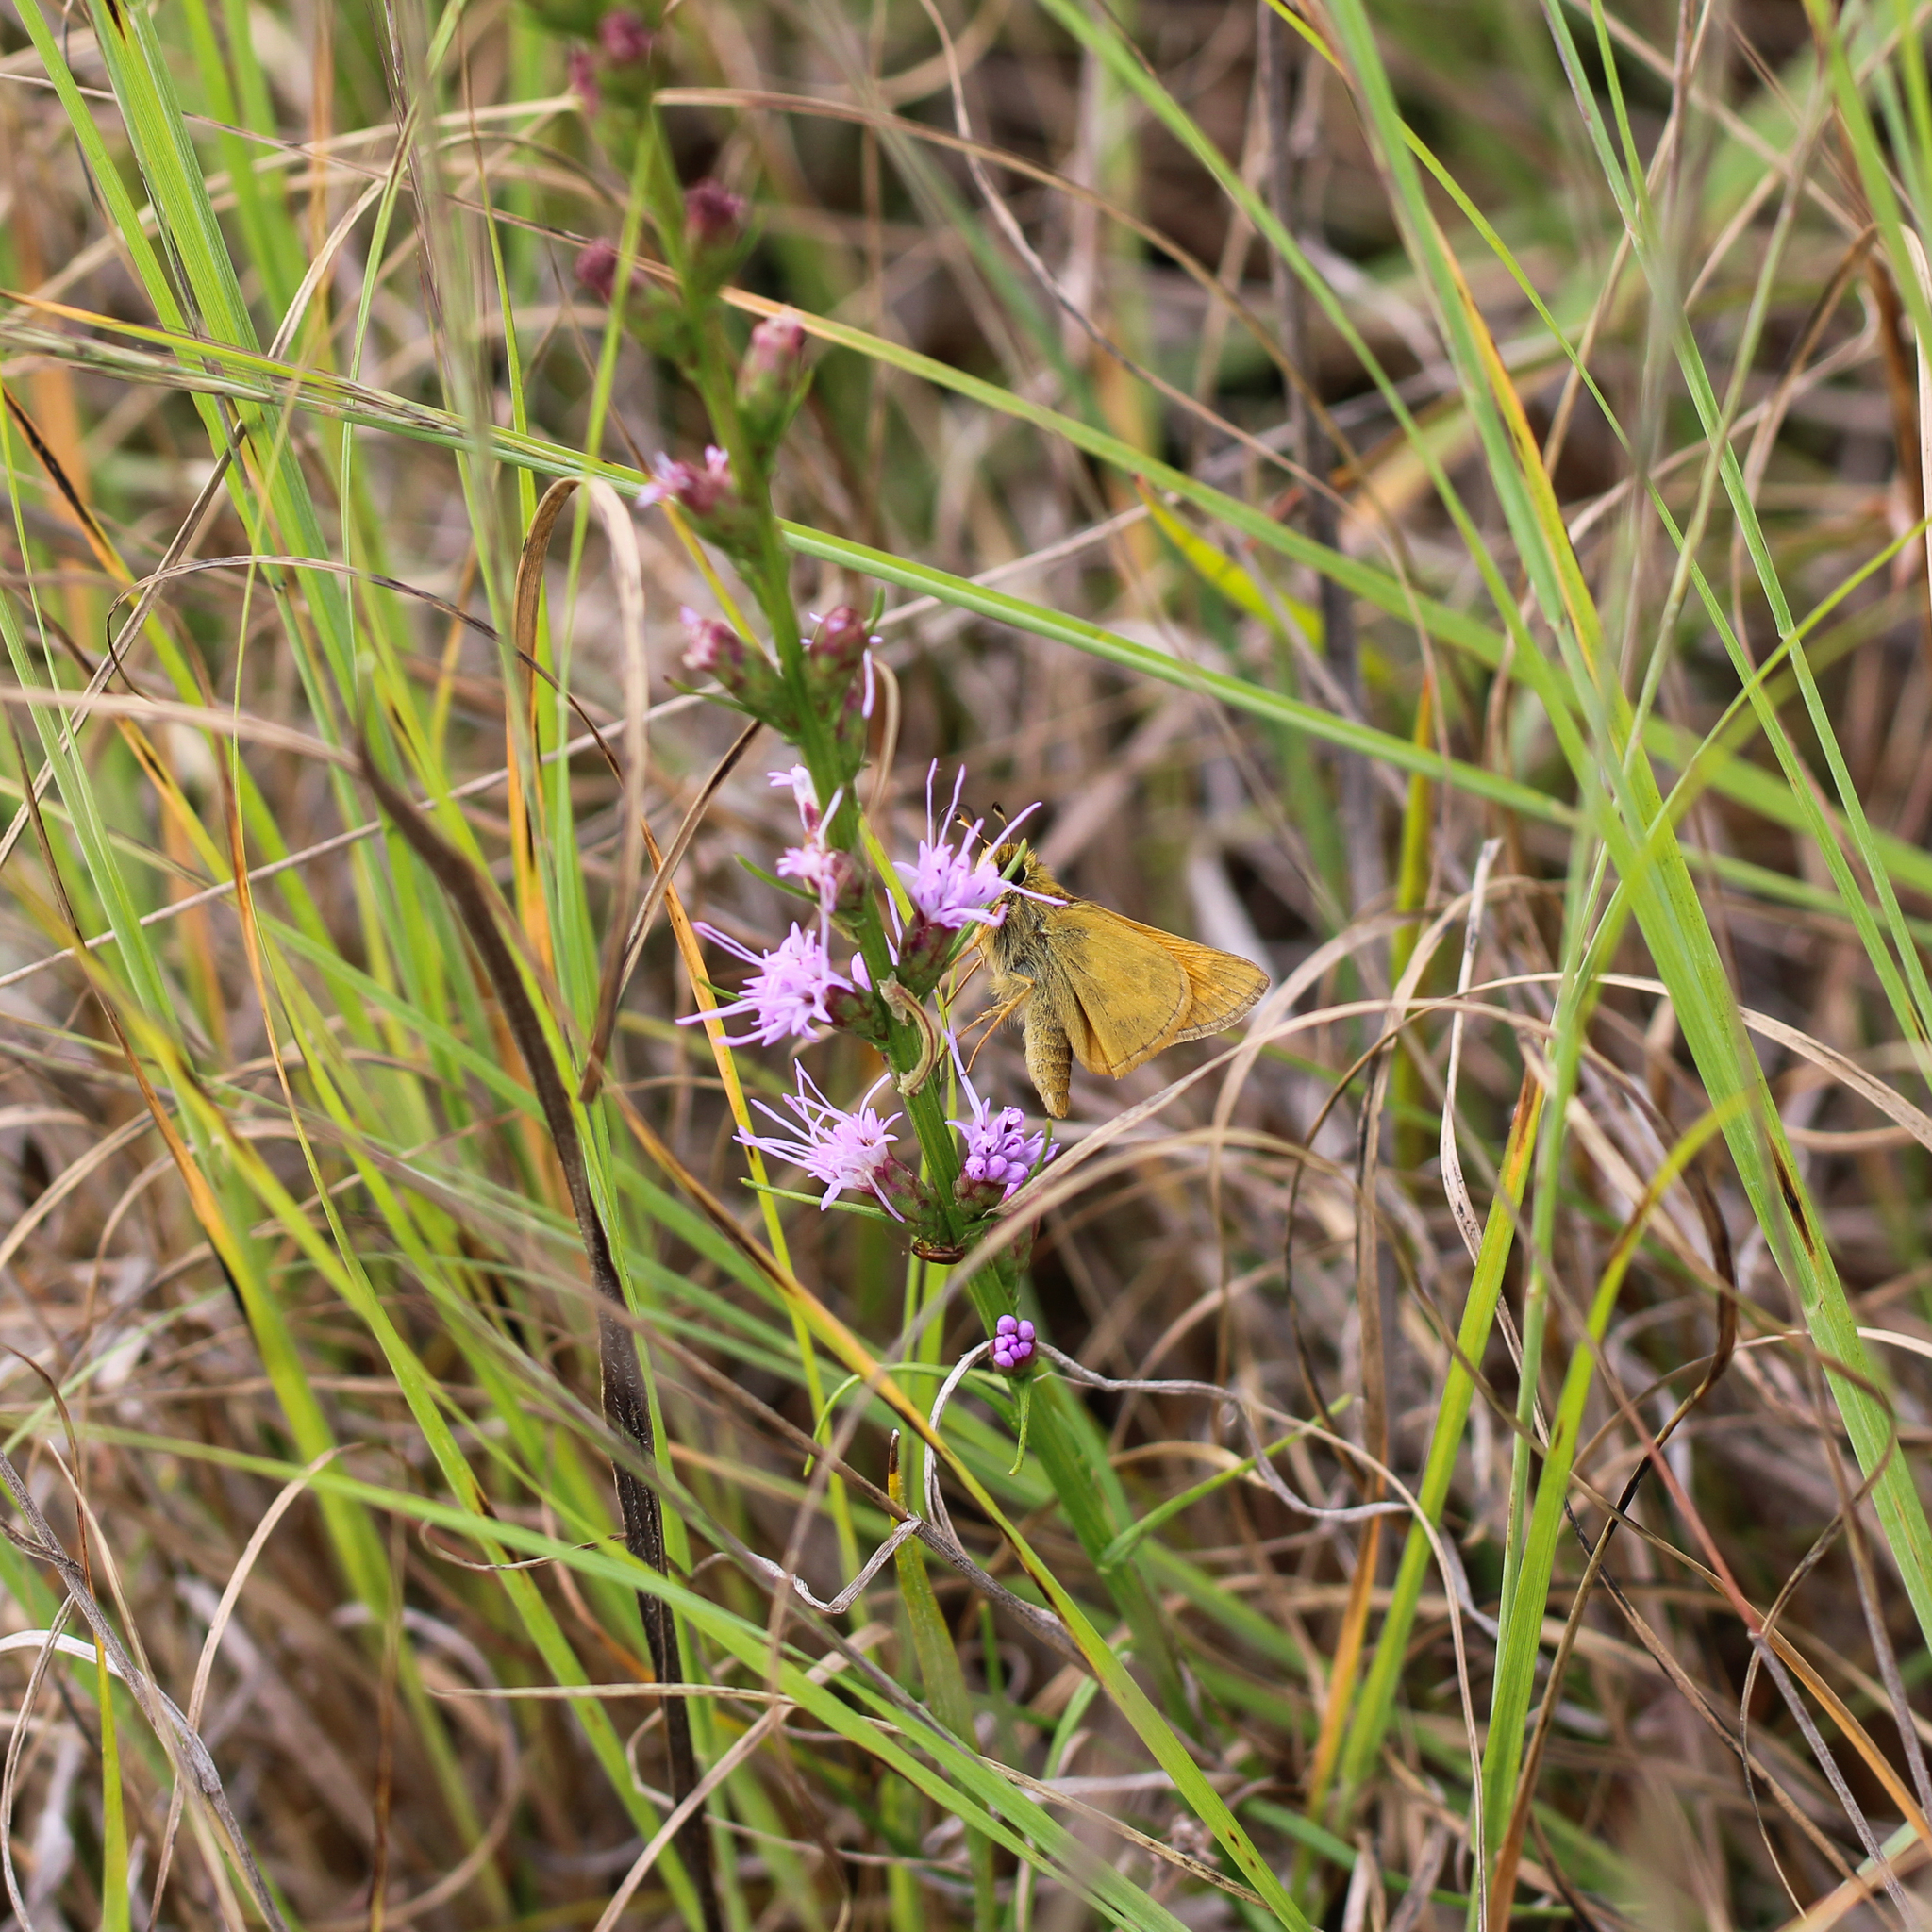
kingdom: Animalia
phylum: Arthropoda
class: Insecta
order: Lepidoptera
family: Hesperiidae
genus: Atalopedes
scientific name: Atalopedes
